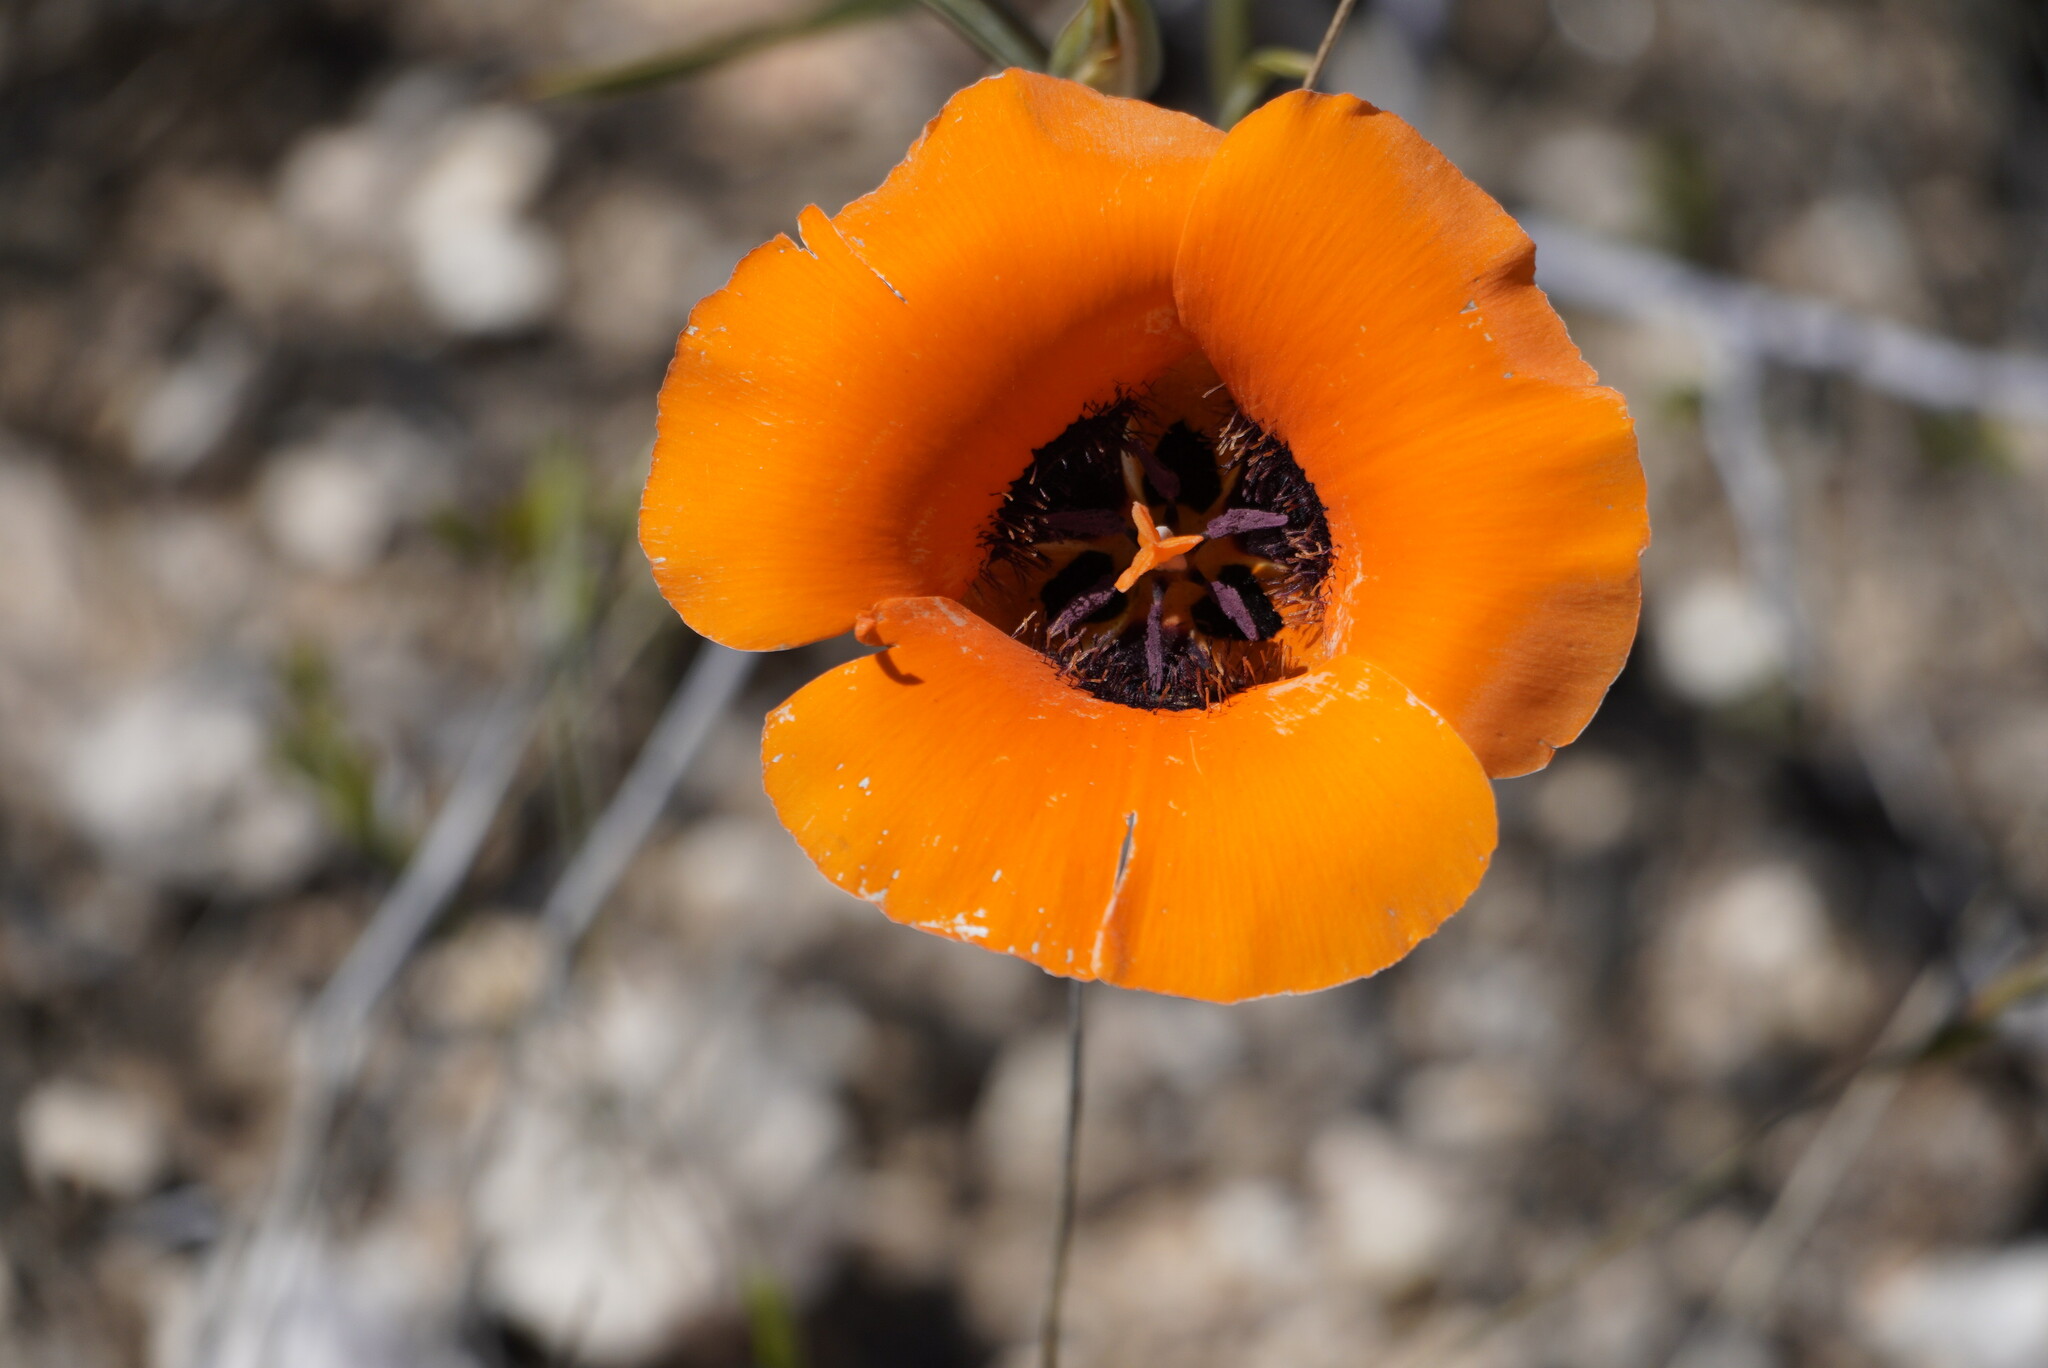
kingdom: Plantae
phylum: Tracheophyta
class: Liliopsida
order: Liliales
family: Liliaceae
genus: Calochortus
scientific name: Calochortus kennedyi
